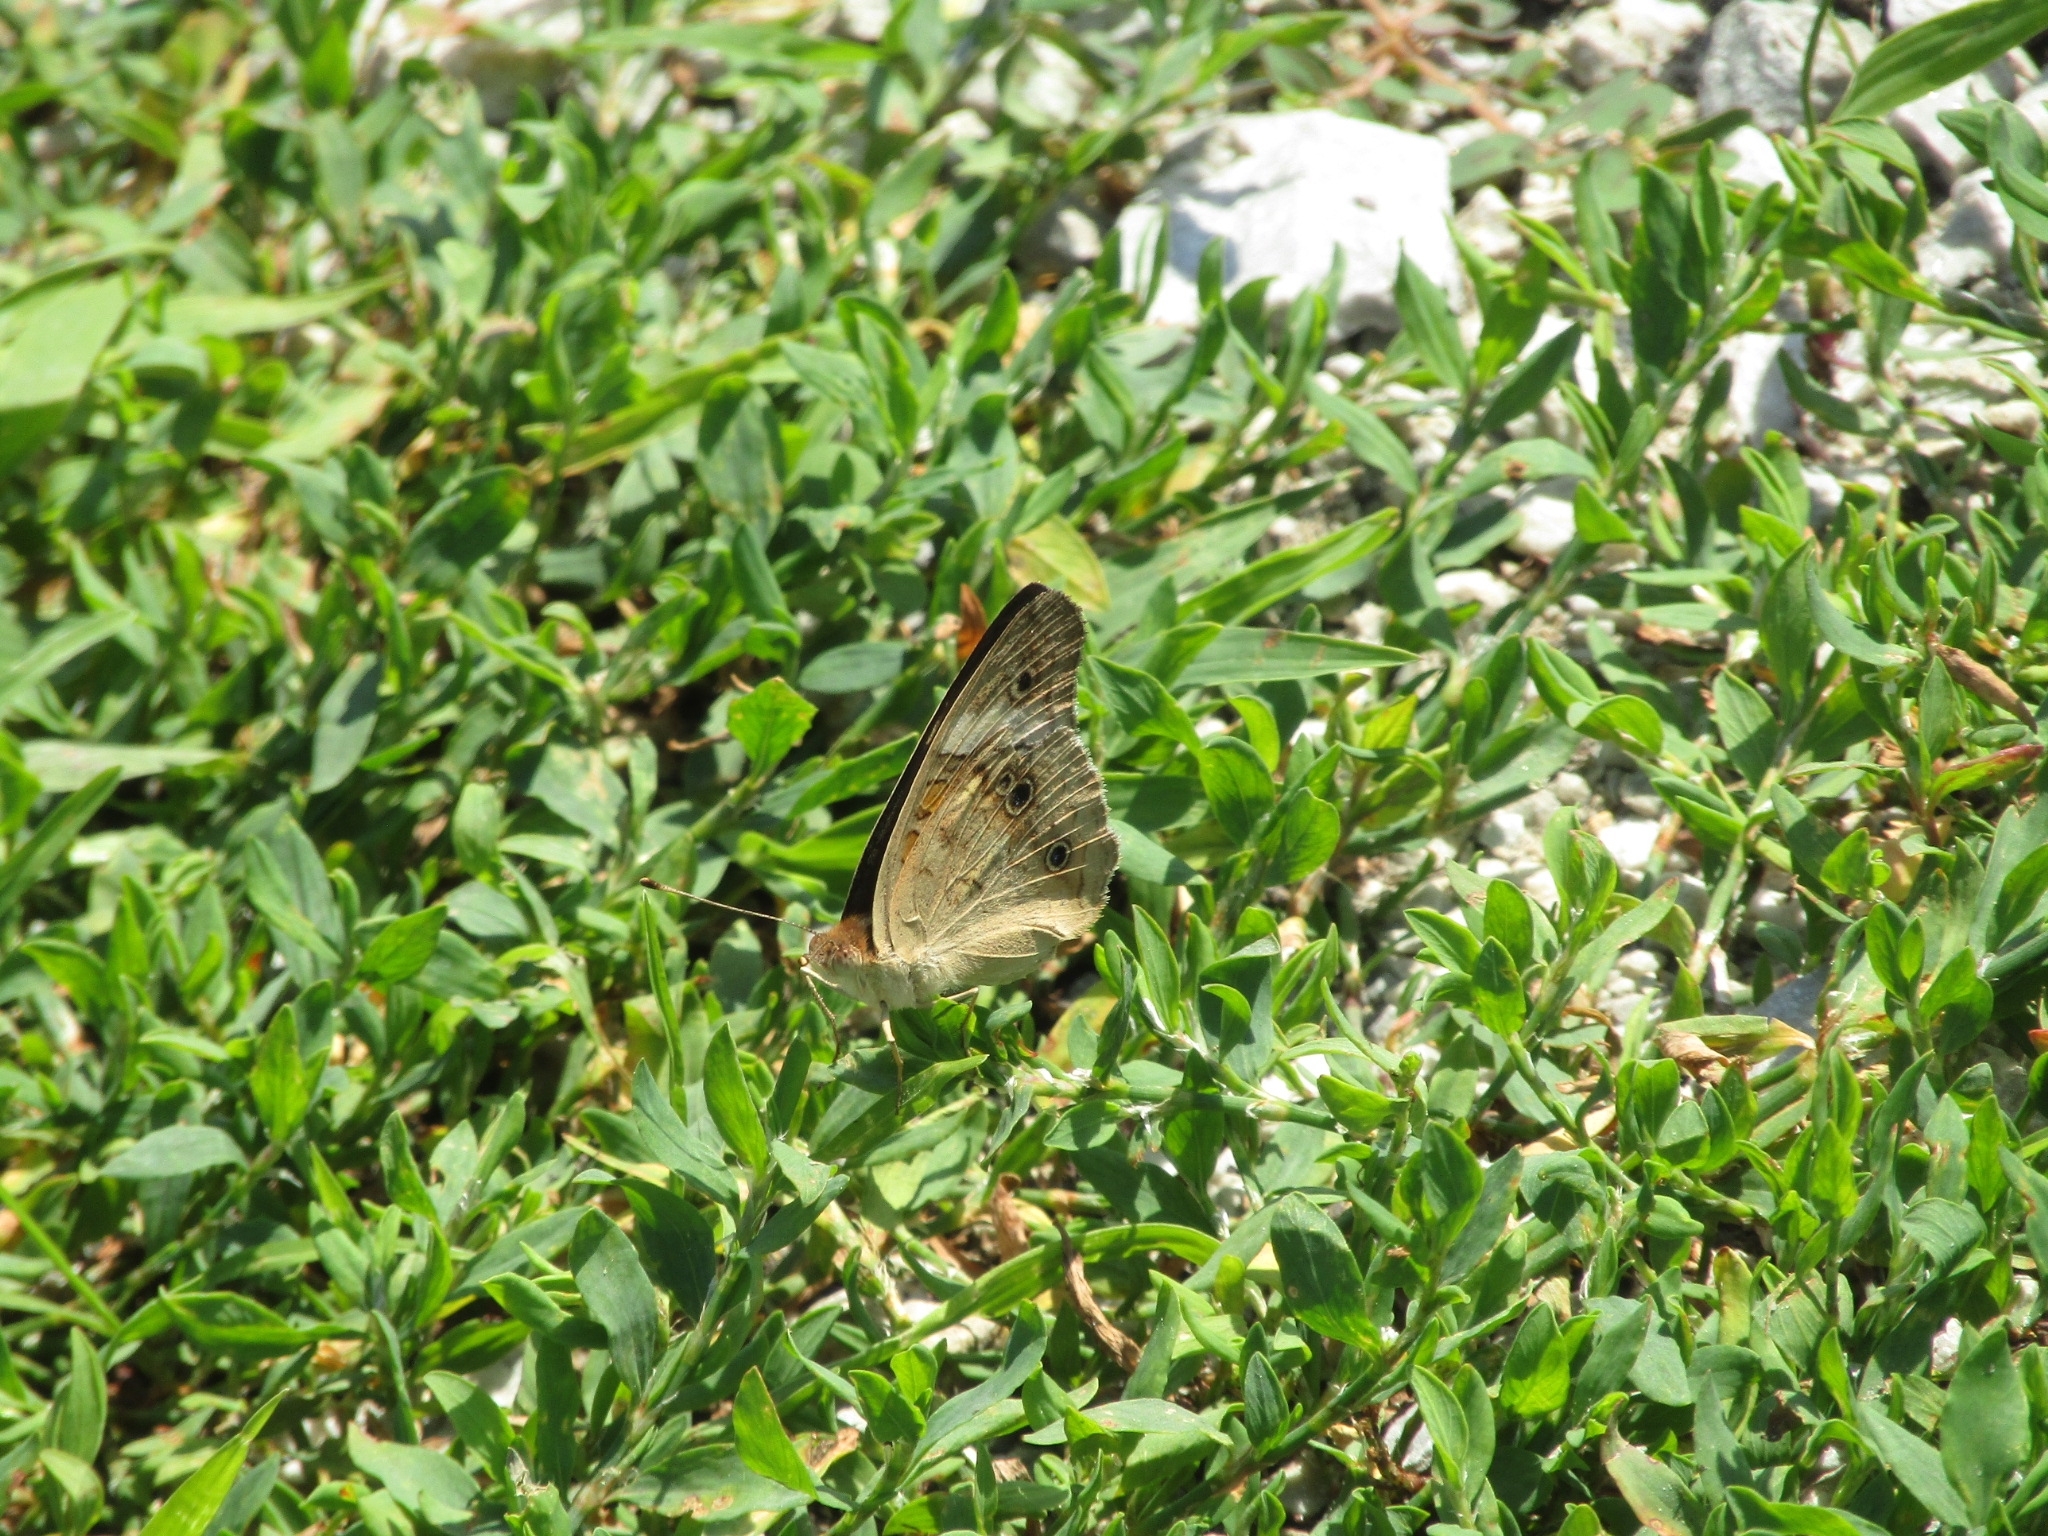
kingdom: Animalia
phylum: Arthropoda
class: Insecta
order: Lepidoptera
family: Nymphalidae
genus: Junonia
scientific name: Junonia coenia
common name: Common buckeye
